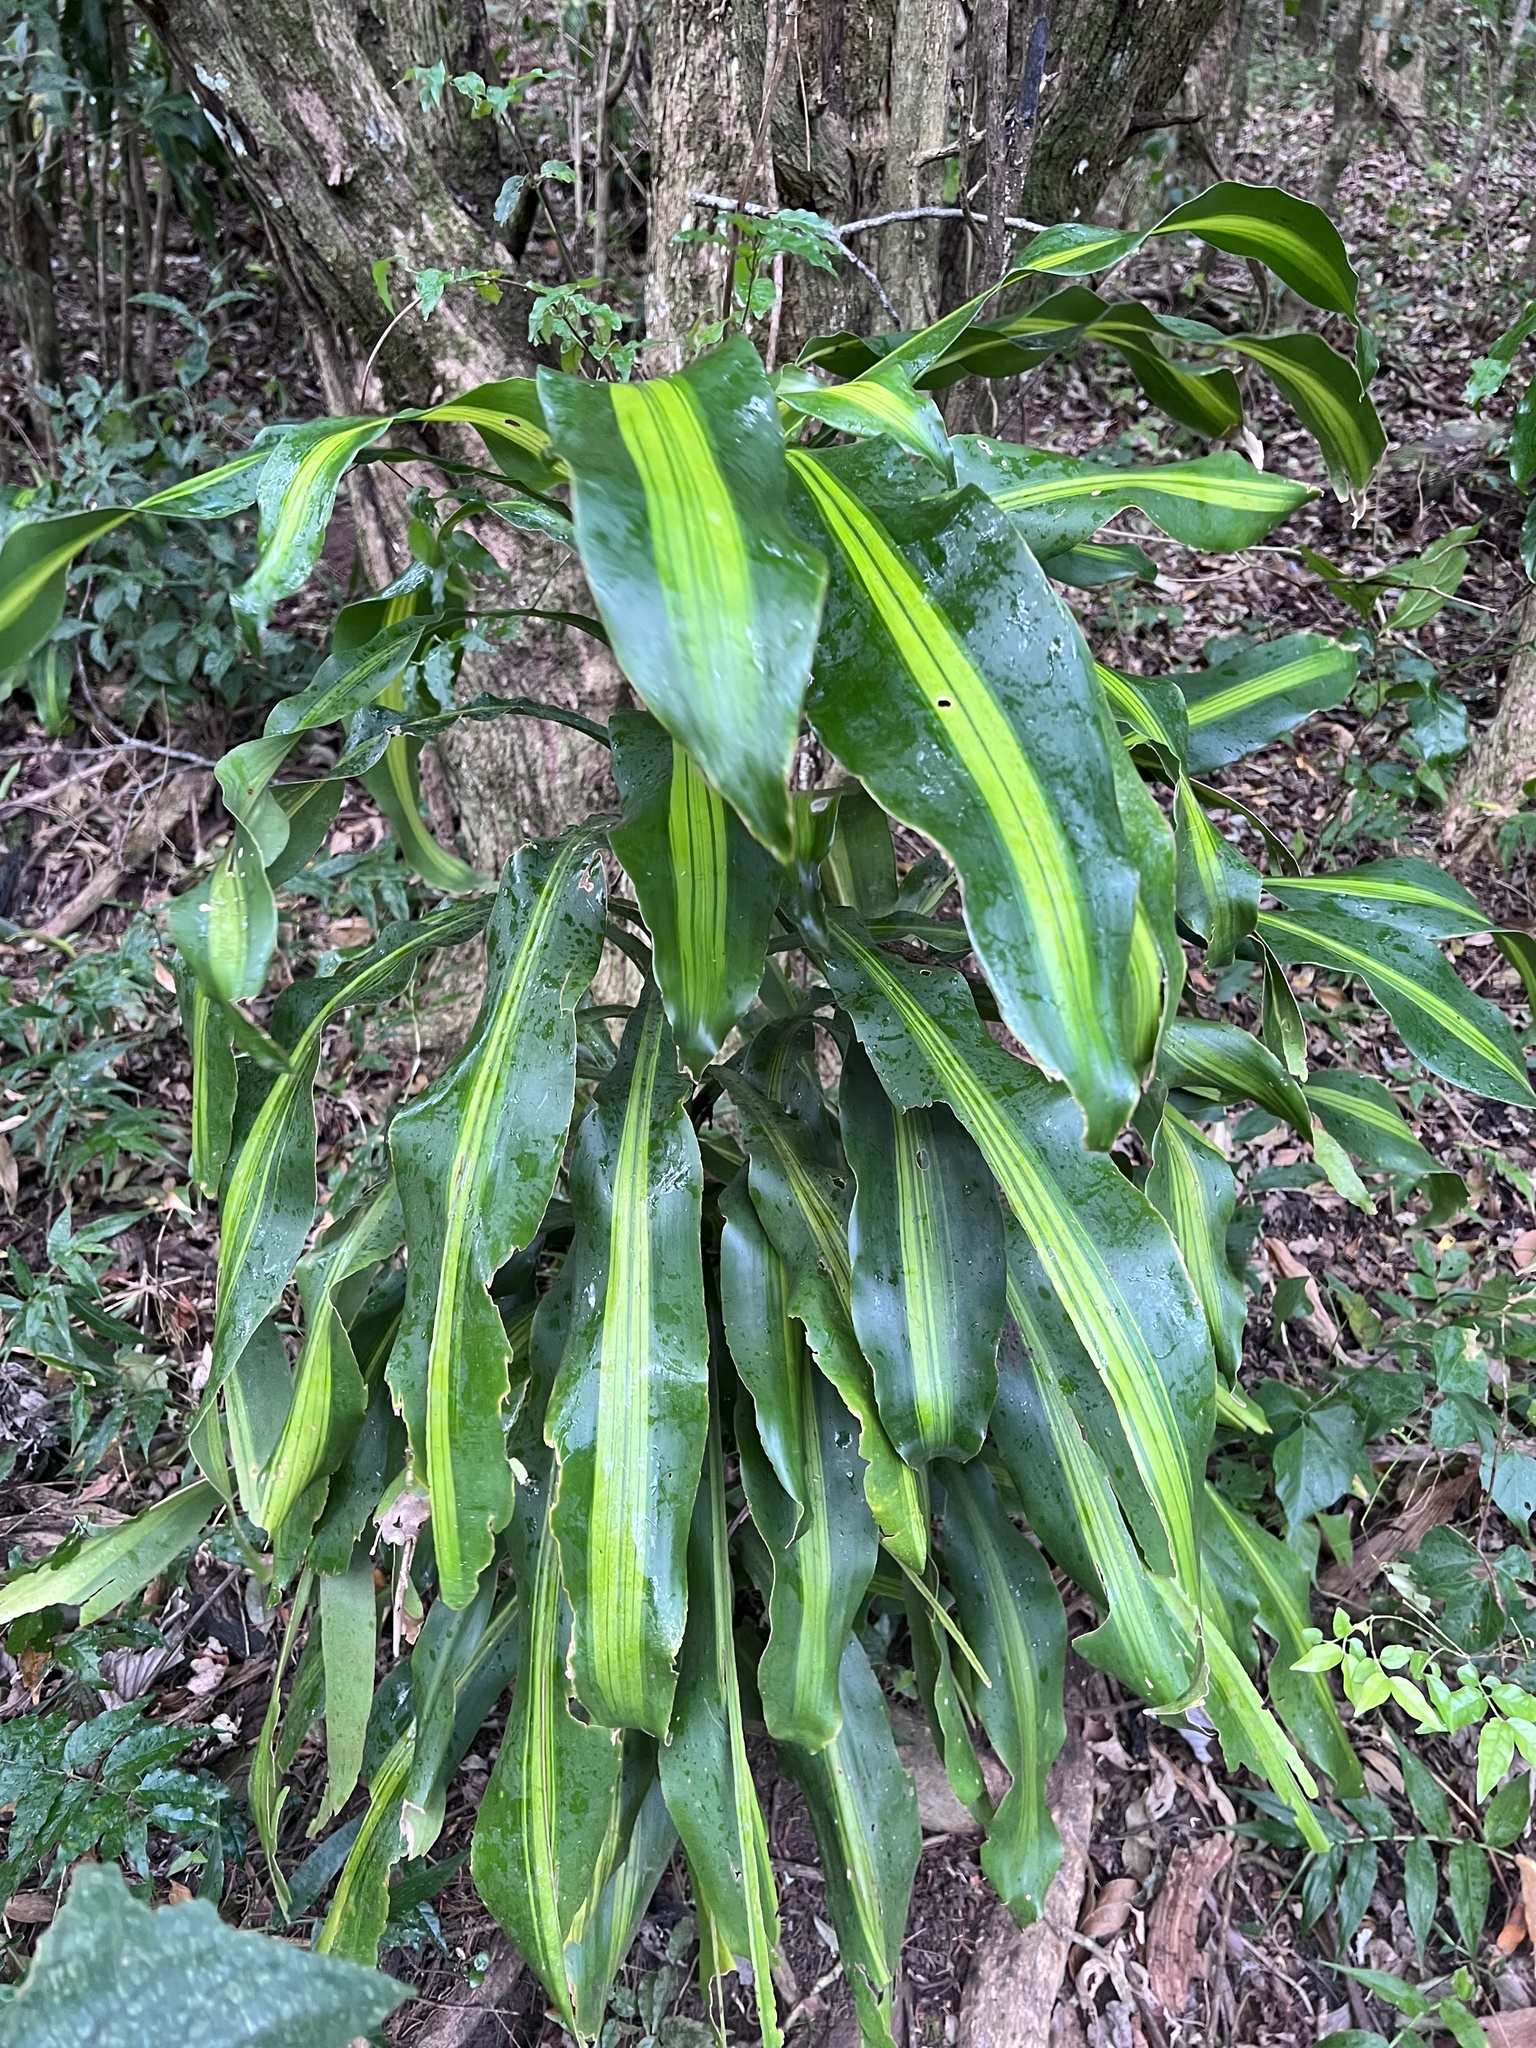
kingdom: Plantae
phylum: Tracheophyta
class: Liliopsida
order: Asparagales
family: Asparagaceae
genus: Dracaena
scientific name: Dracaena fragrans
